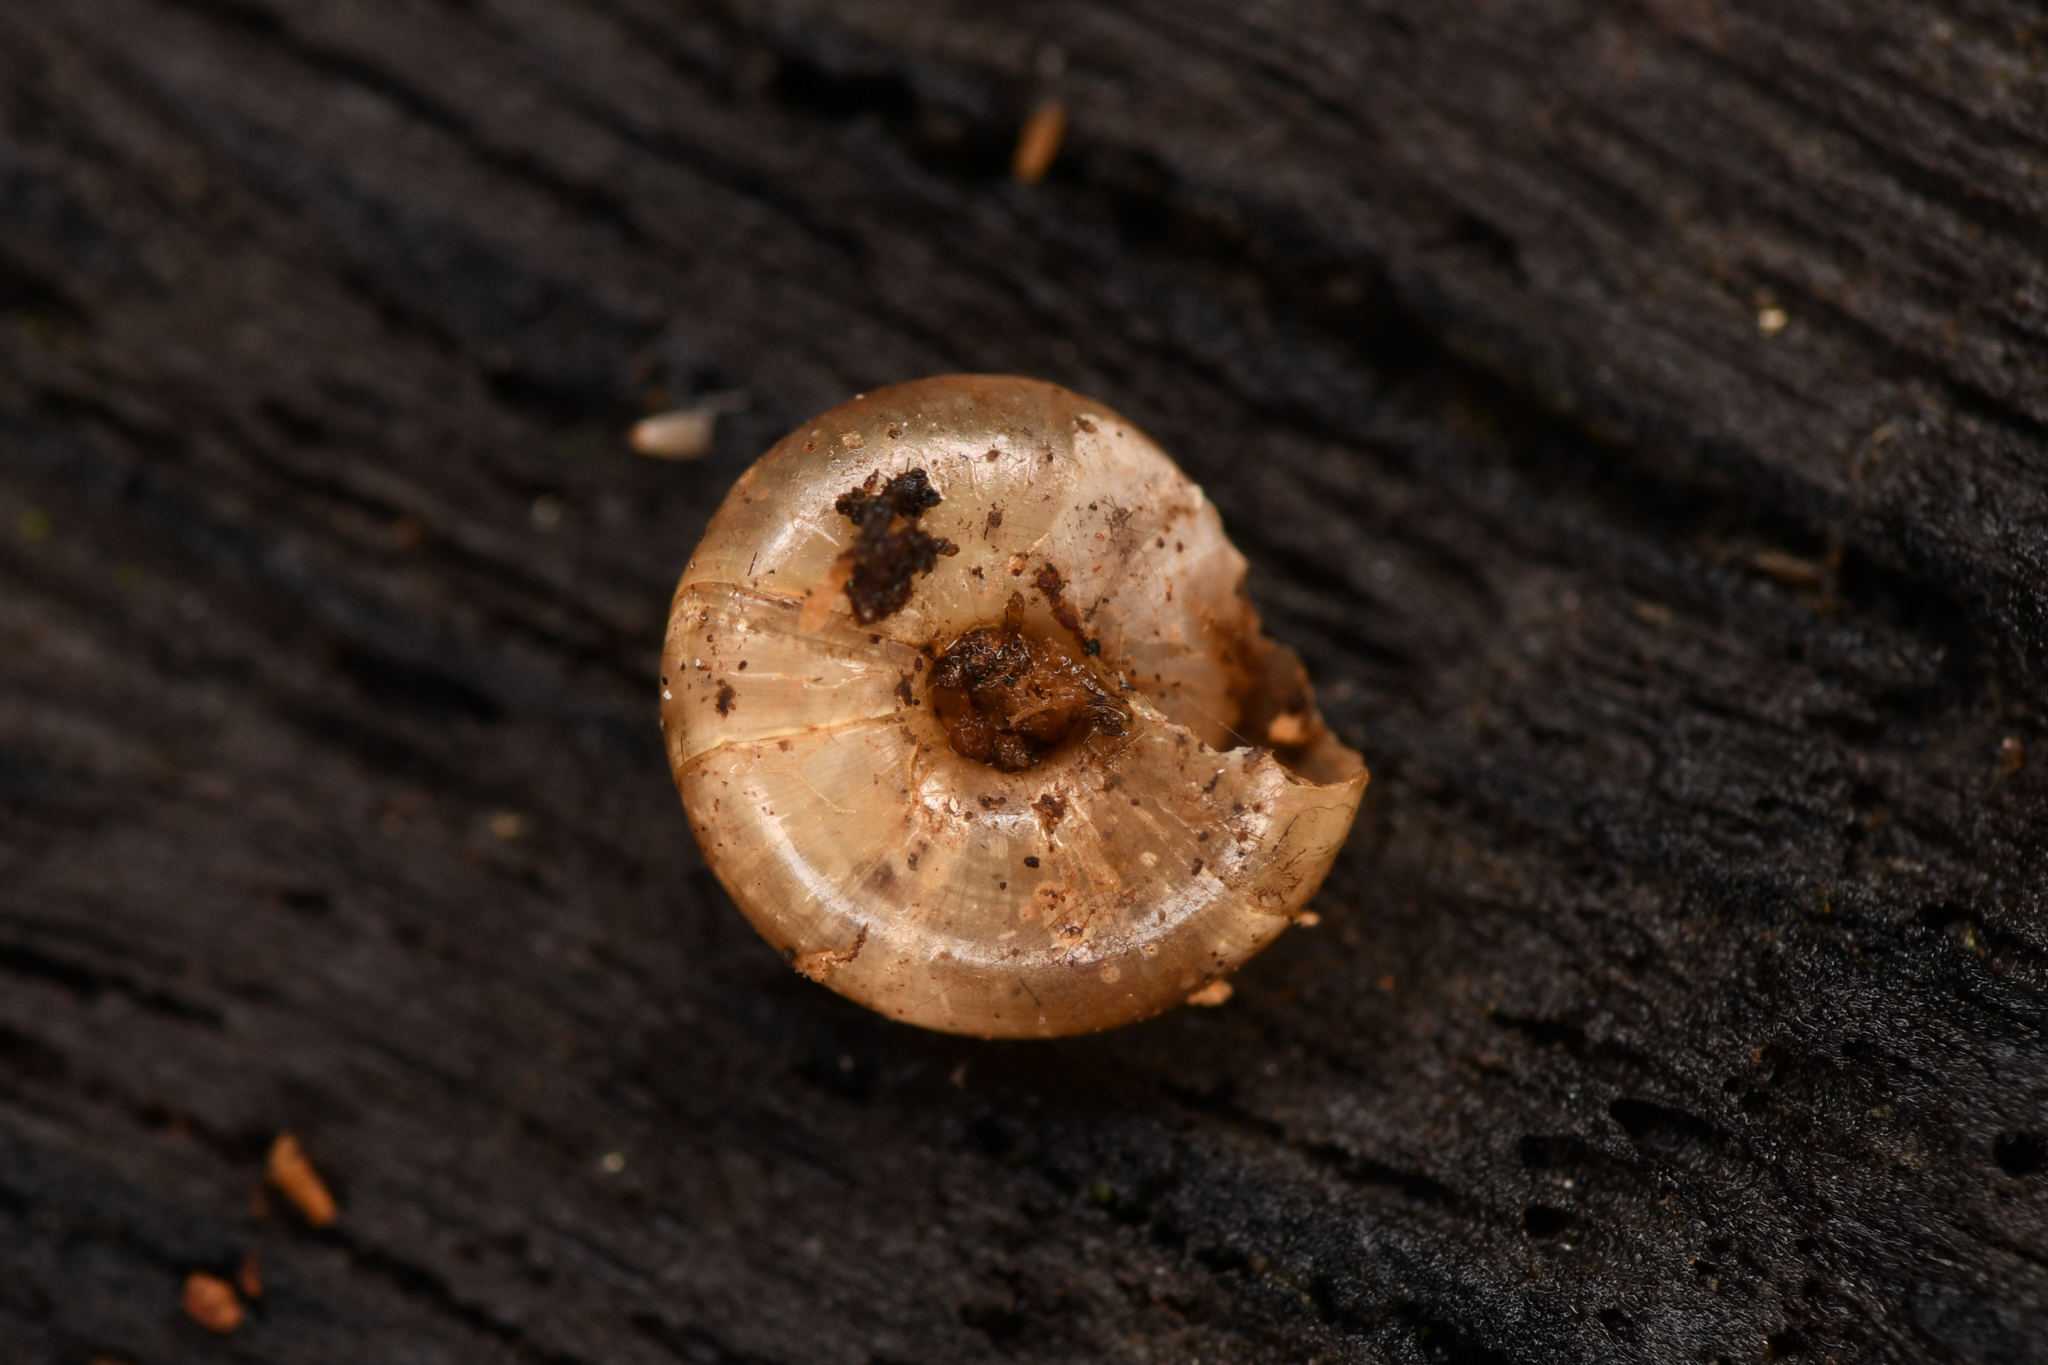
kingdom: Animalia
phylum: Mollusca
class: Gastropoda
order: Stylommatophora
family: Gastrodontidae
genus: Zonitoides
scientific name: Zonitoides arboreus
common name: Quick gloss
